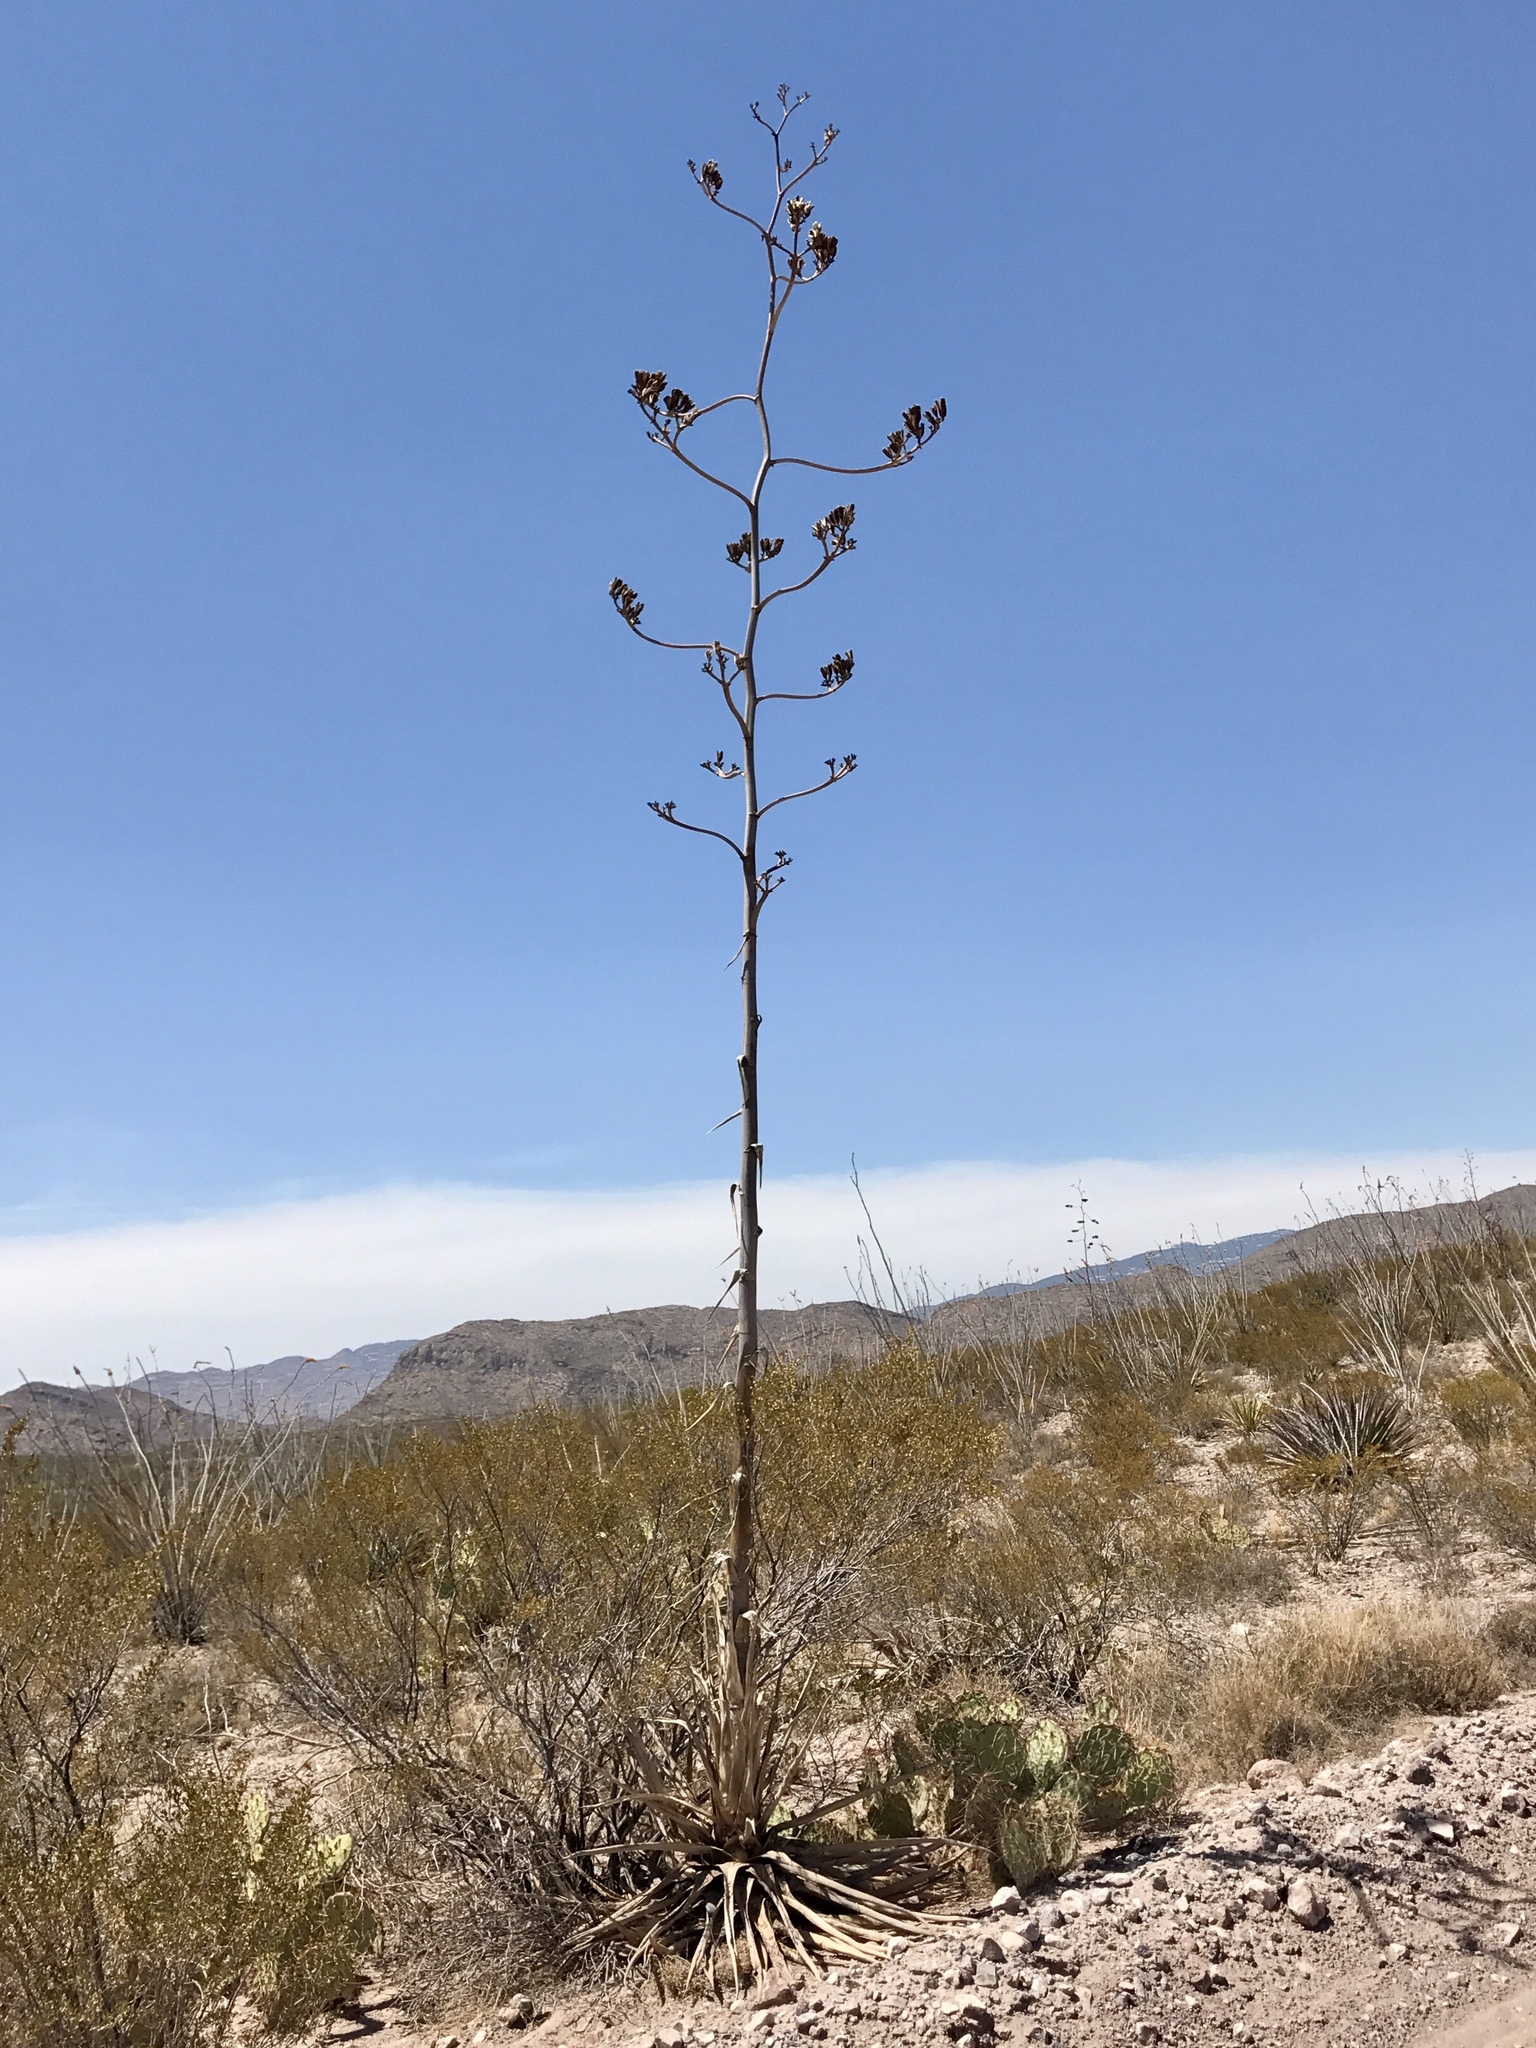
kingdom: Plantae
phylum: Tracheophyta
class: Liliopsida
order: Asparagales
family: Asparagaceae
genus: Agave
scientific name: Agave palmeri
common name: Palmer agave
